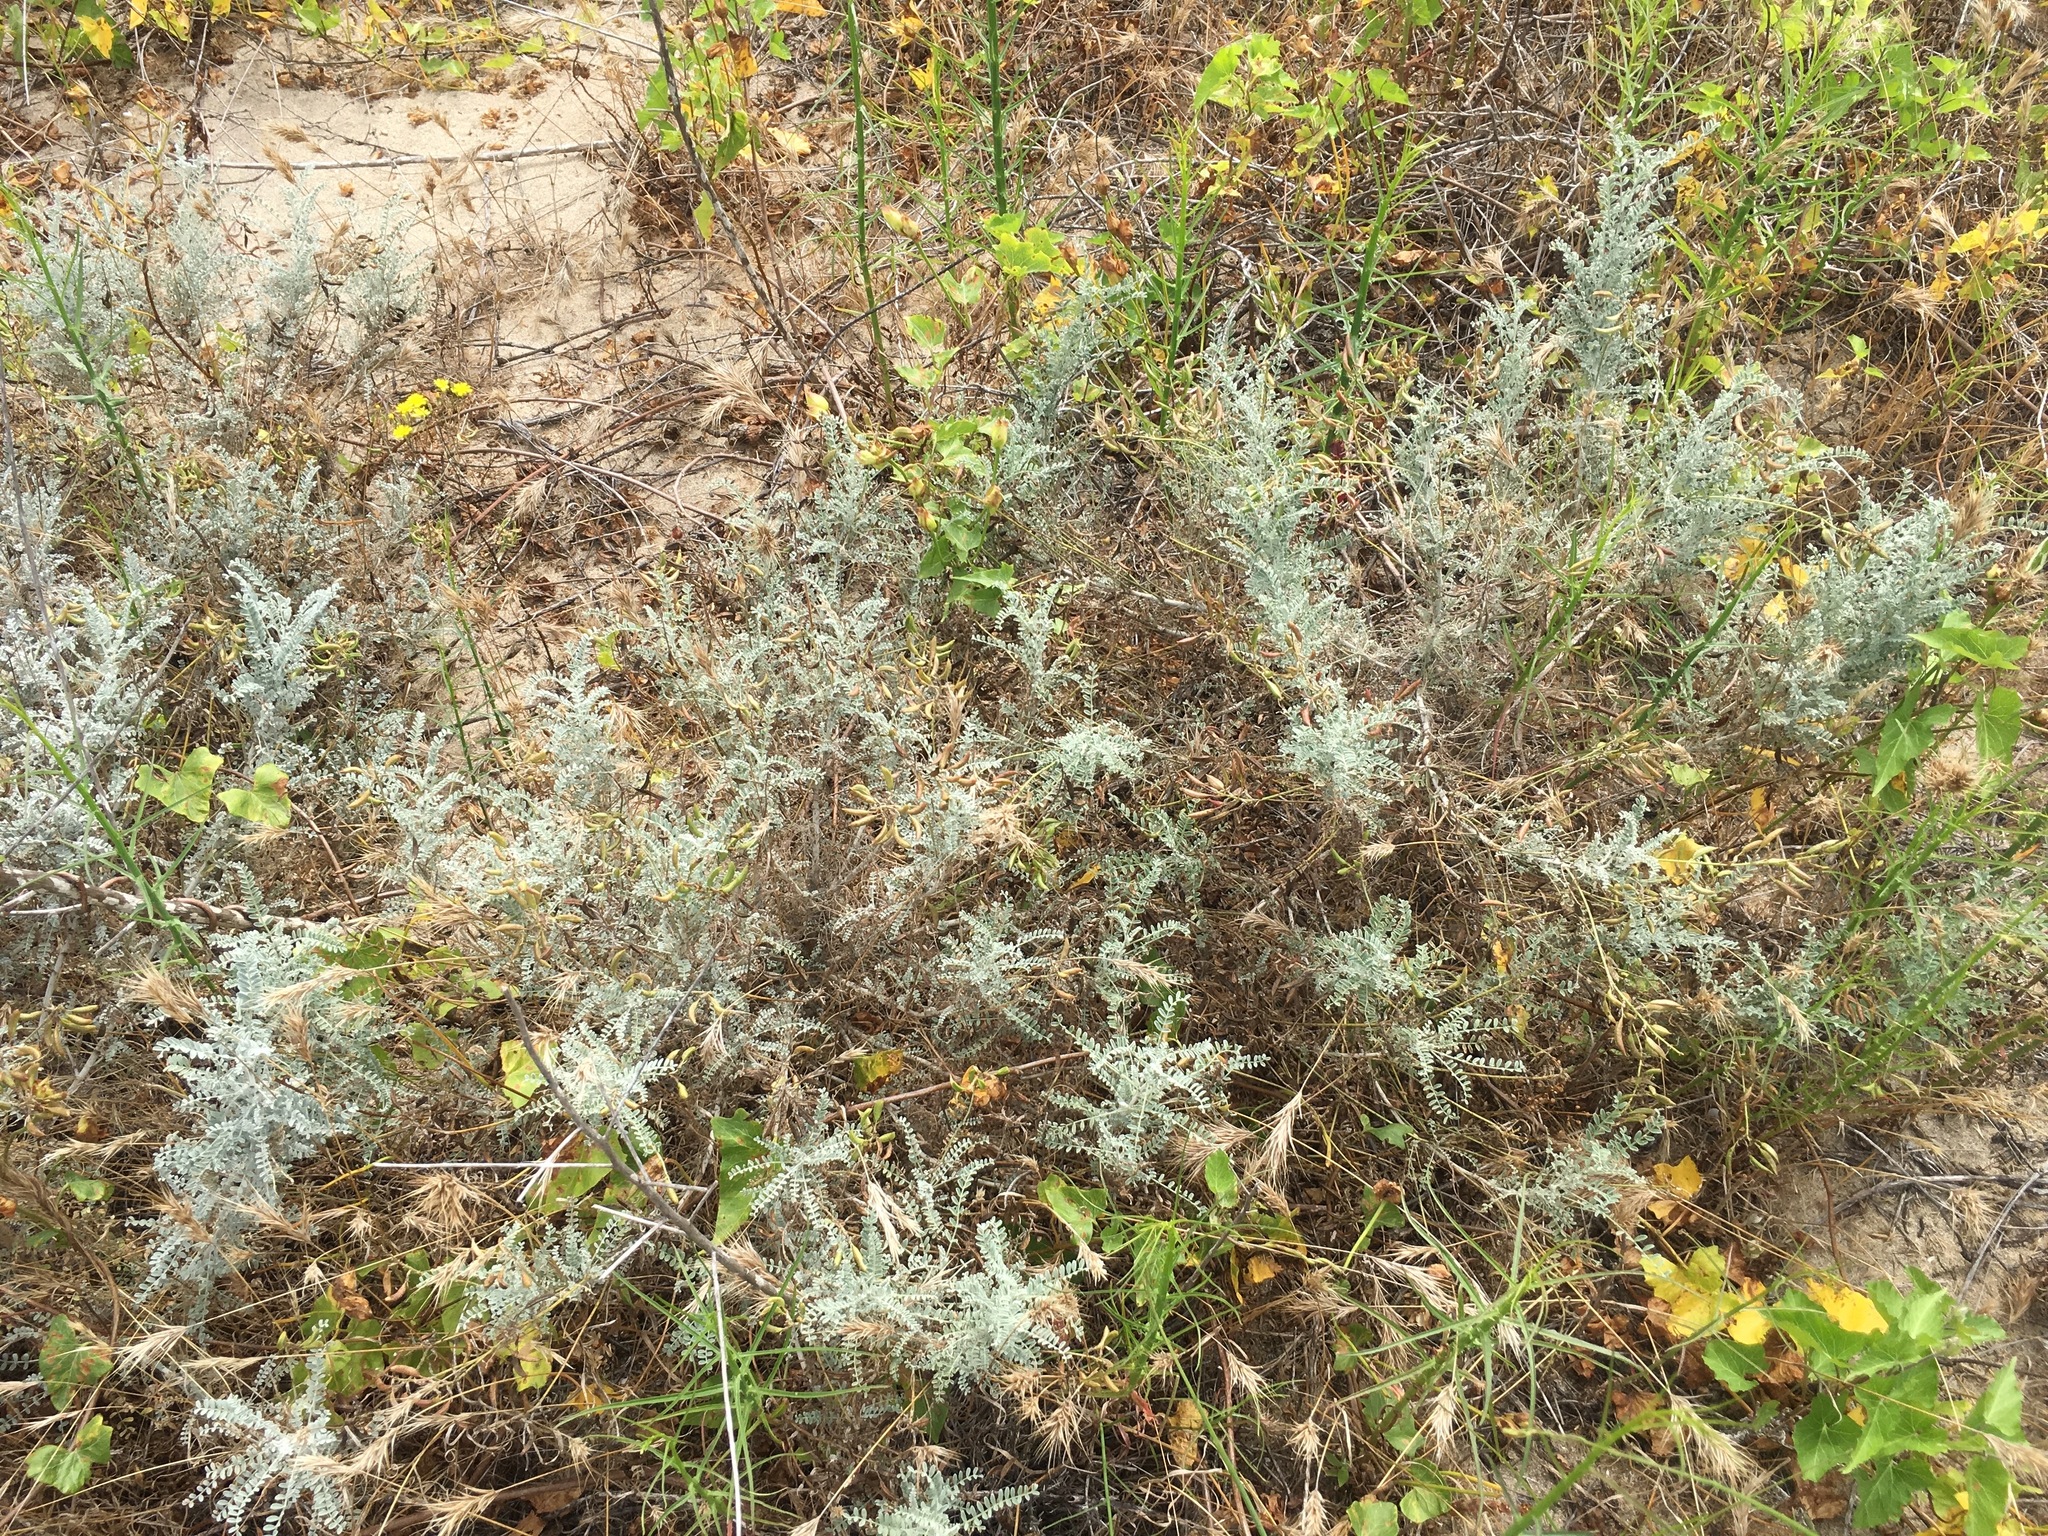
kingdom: Plantae
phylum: Tracheophyta
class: Magnoliopsida
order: Fabales
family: Fabaceae
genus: Astragalus
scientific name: Astragalus nevinii
